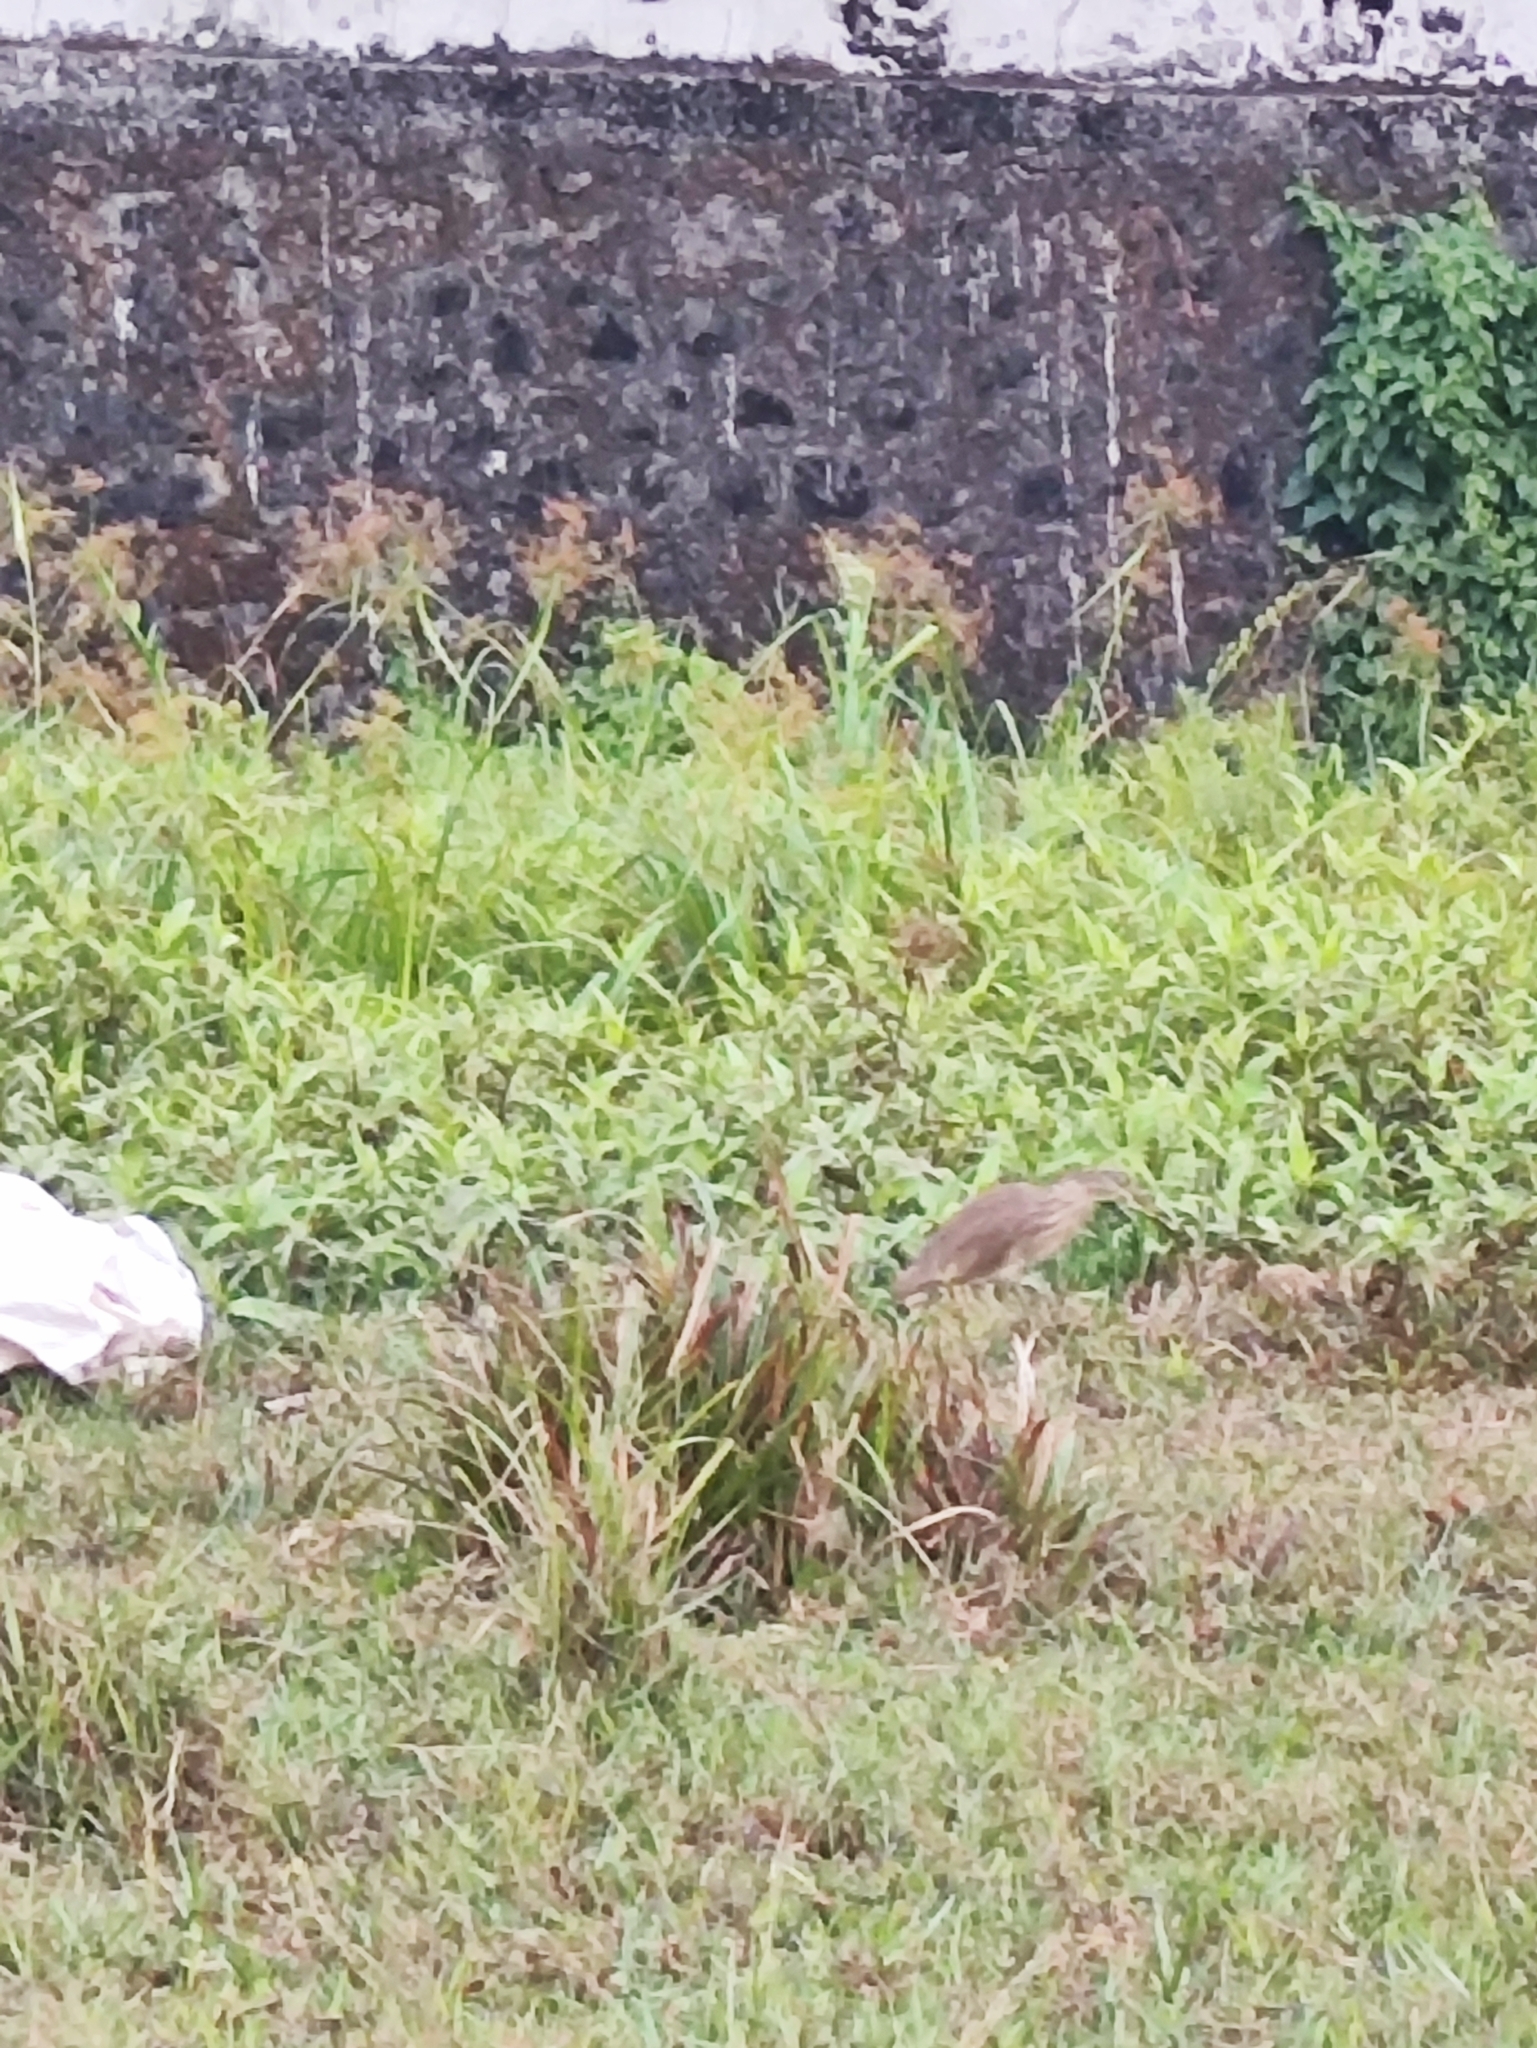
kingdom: Animalia
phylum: Chordata
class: Aves
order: Pelecaniformes
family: Ardeidae
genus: Ardeola
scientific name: Ardeola grayii
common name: Indian pond heron
